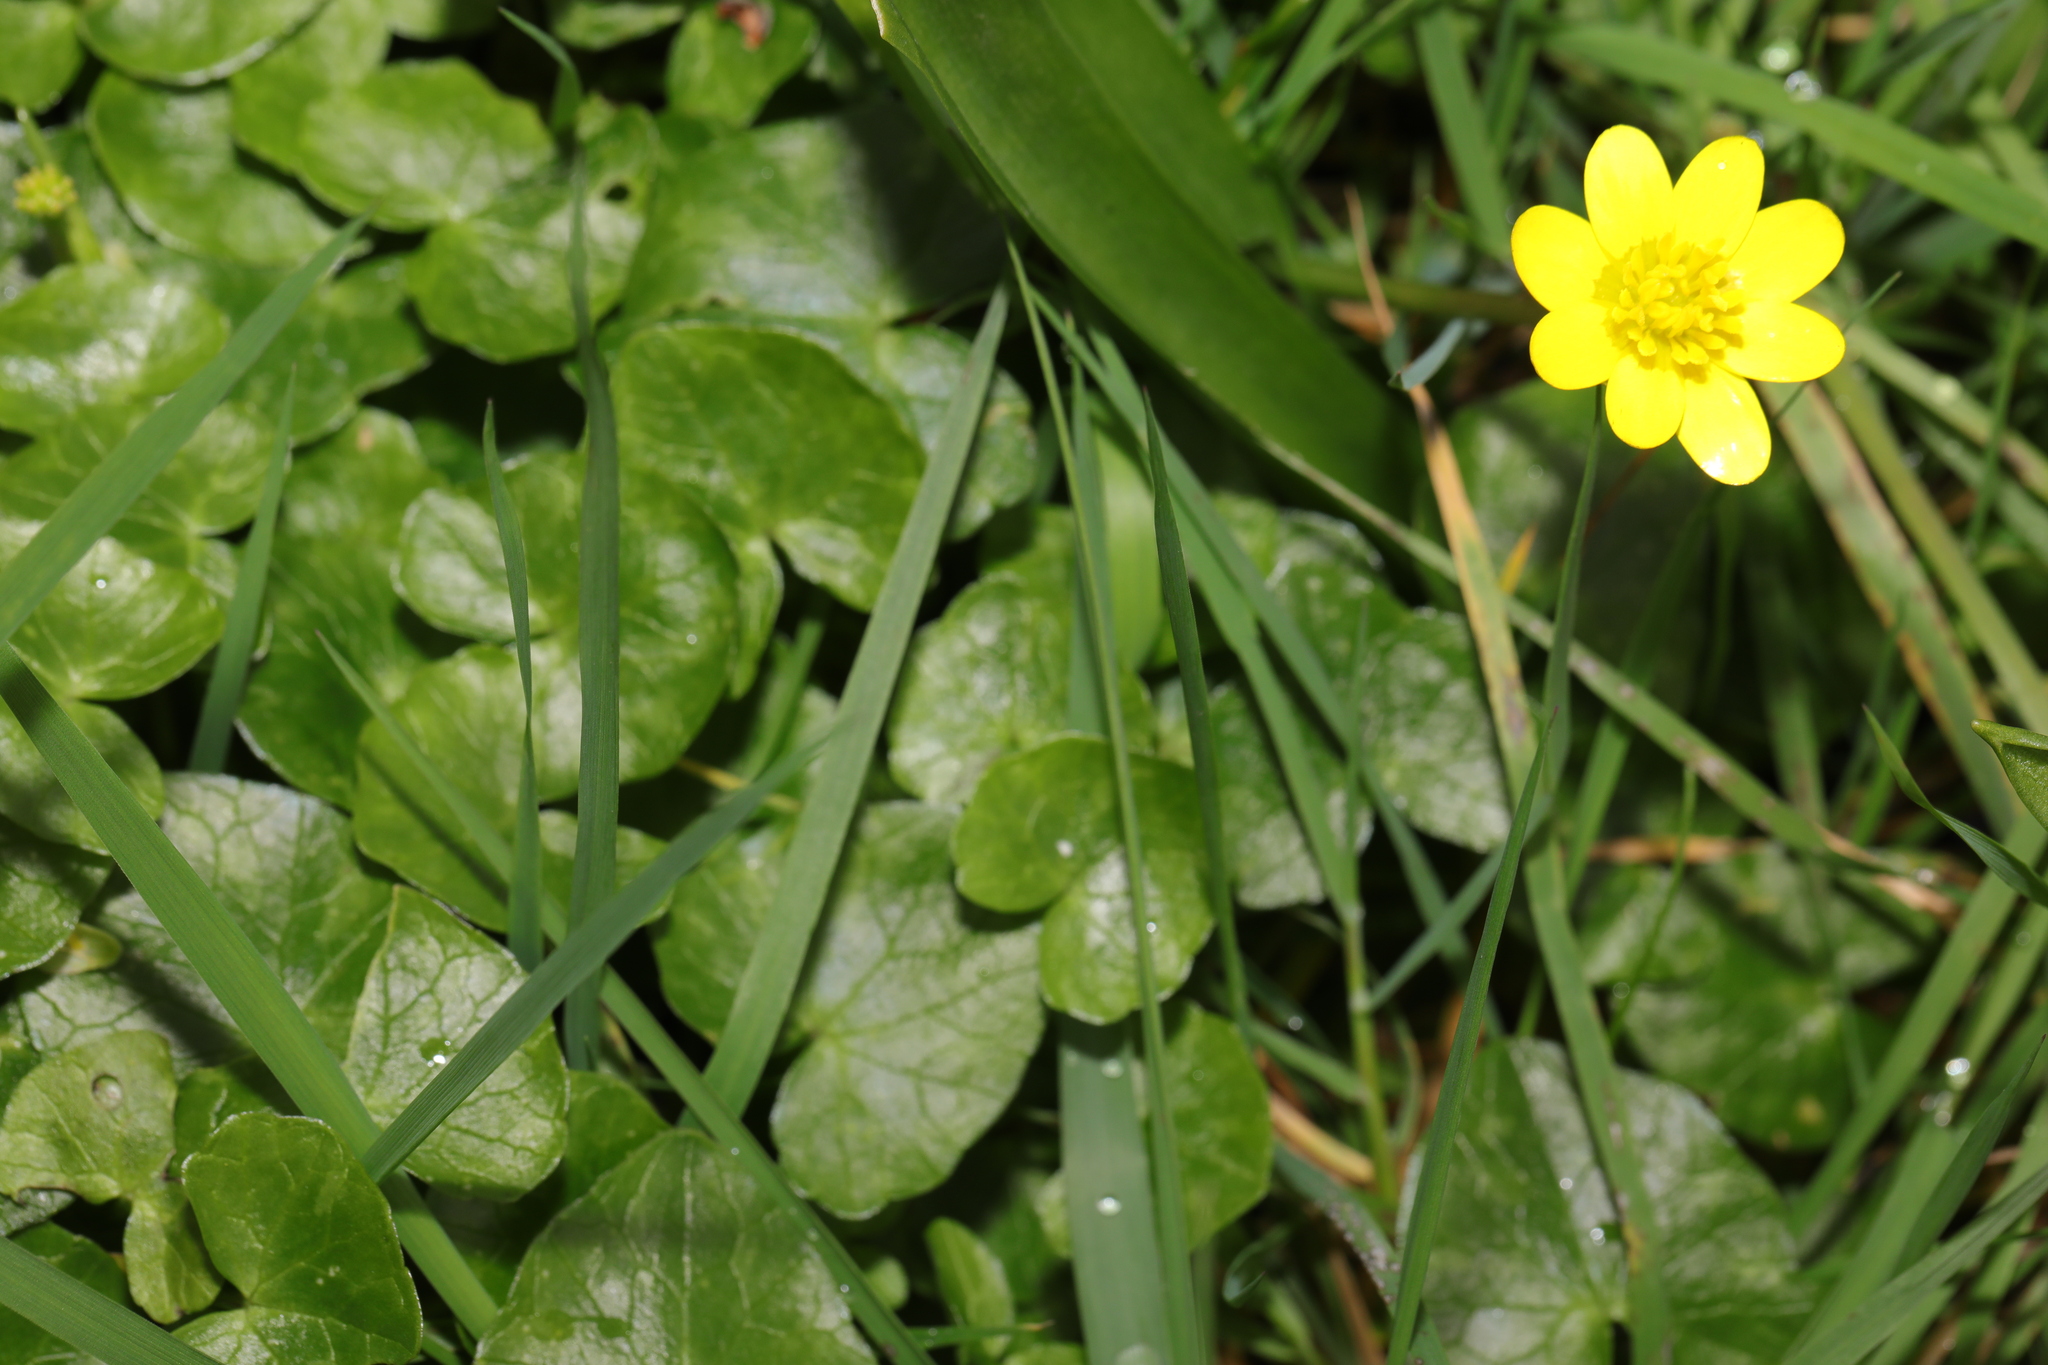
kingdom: Plantae
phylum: Tracheophyta
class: Magnoliopsida
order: Ranunculales
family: Ranunculaceae
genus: Ficaria
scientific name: Ficaria verna
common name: Lesser celandine
